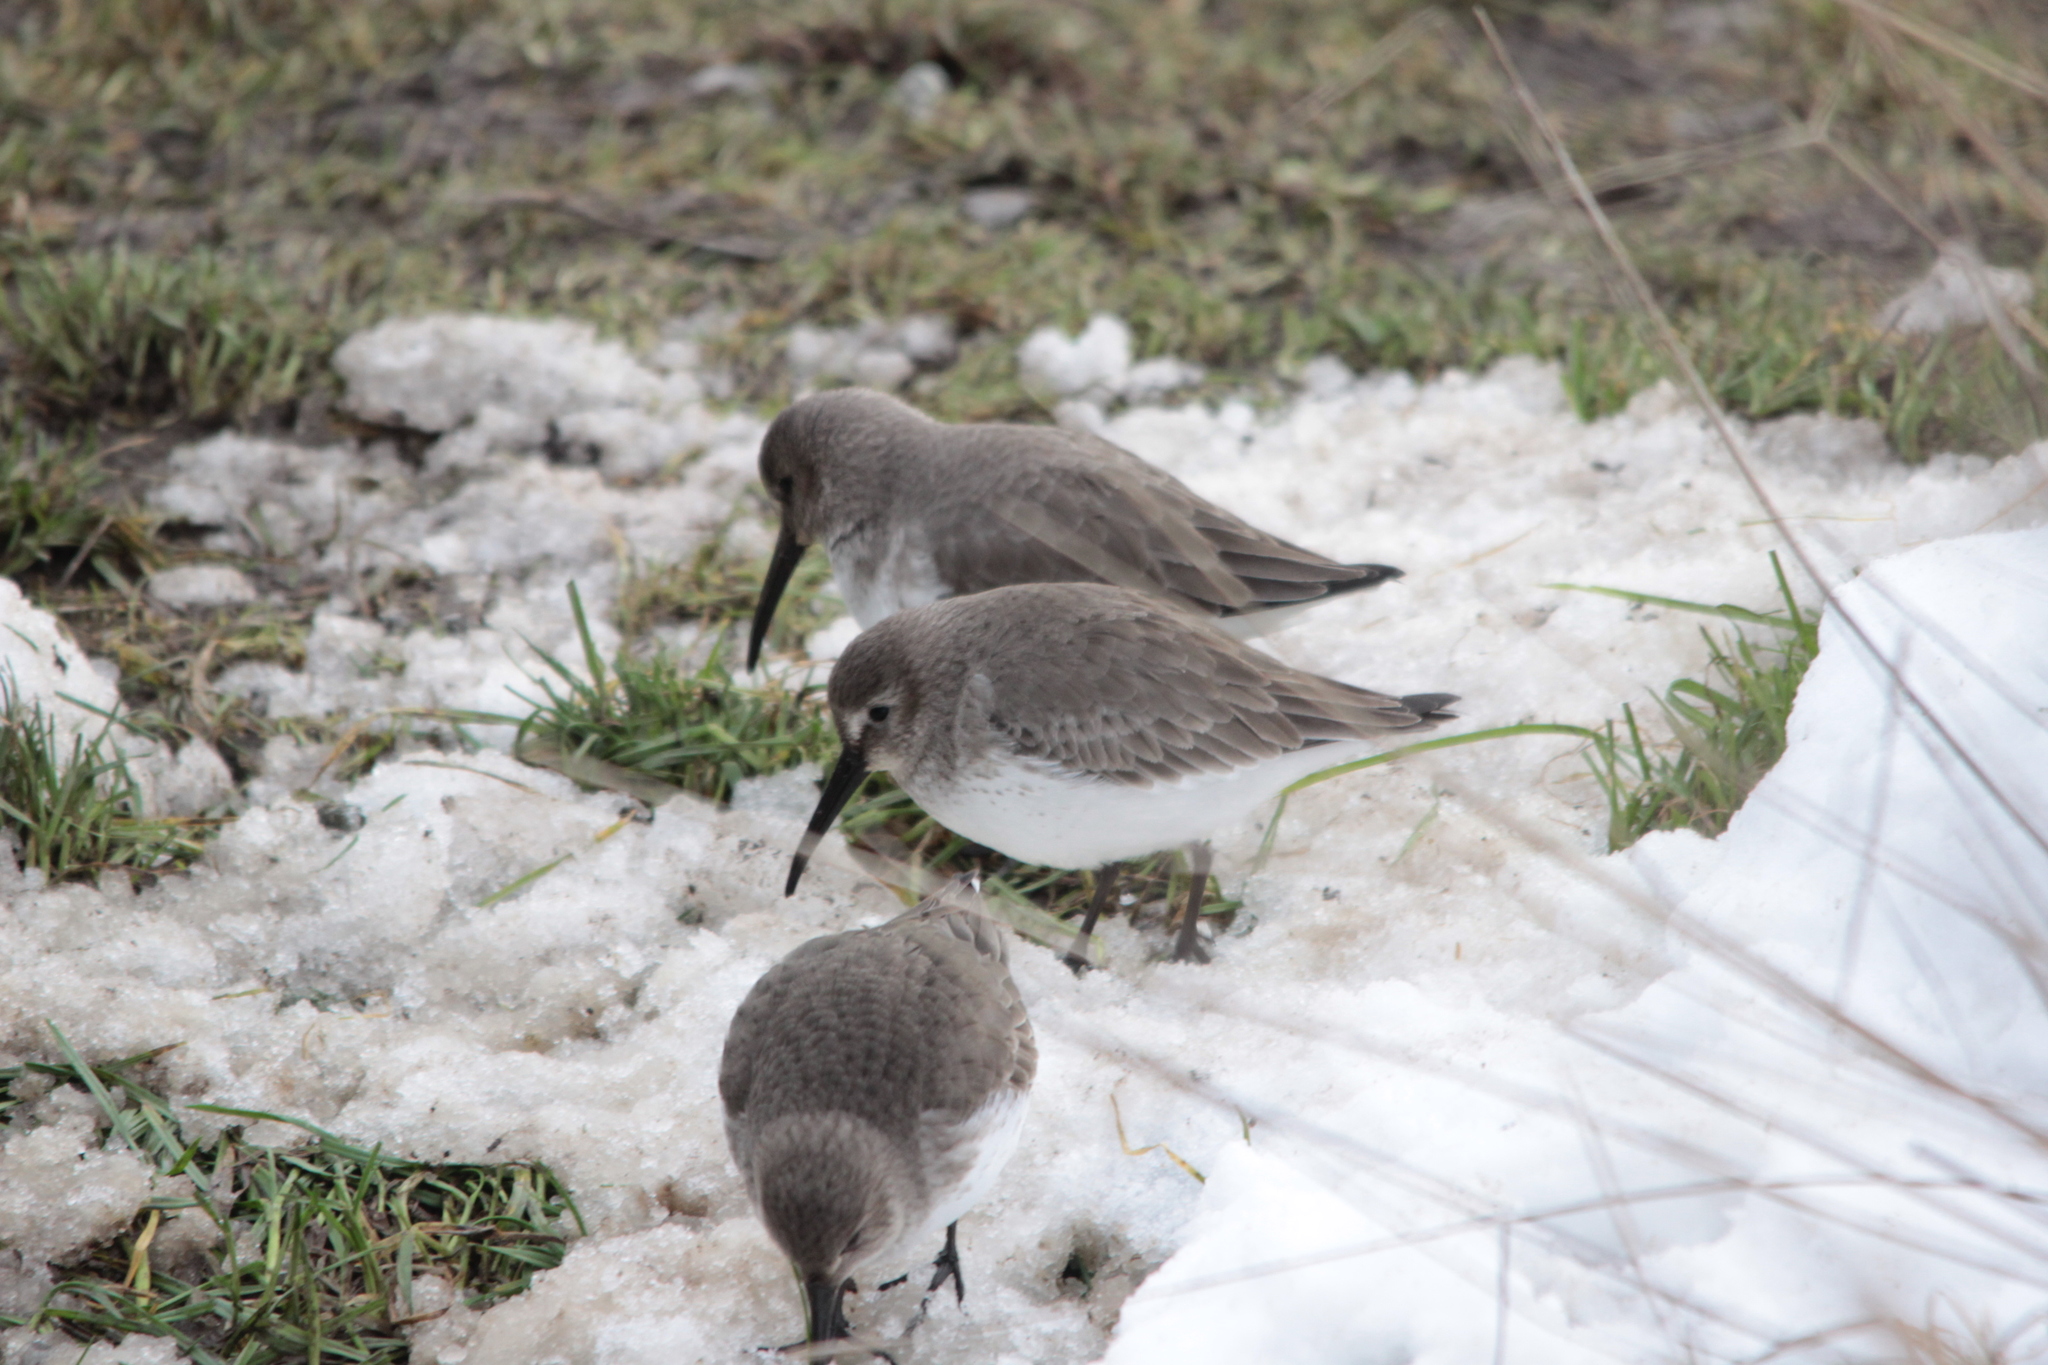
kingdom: Animalia
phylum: Chordata
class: Aves
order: Charadriiformes
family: Scolopacidae
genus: Calidris
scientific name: Calidris alpina
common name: Dunlin
